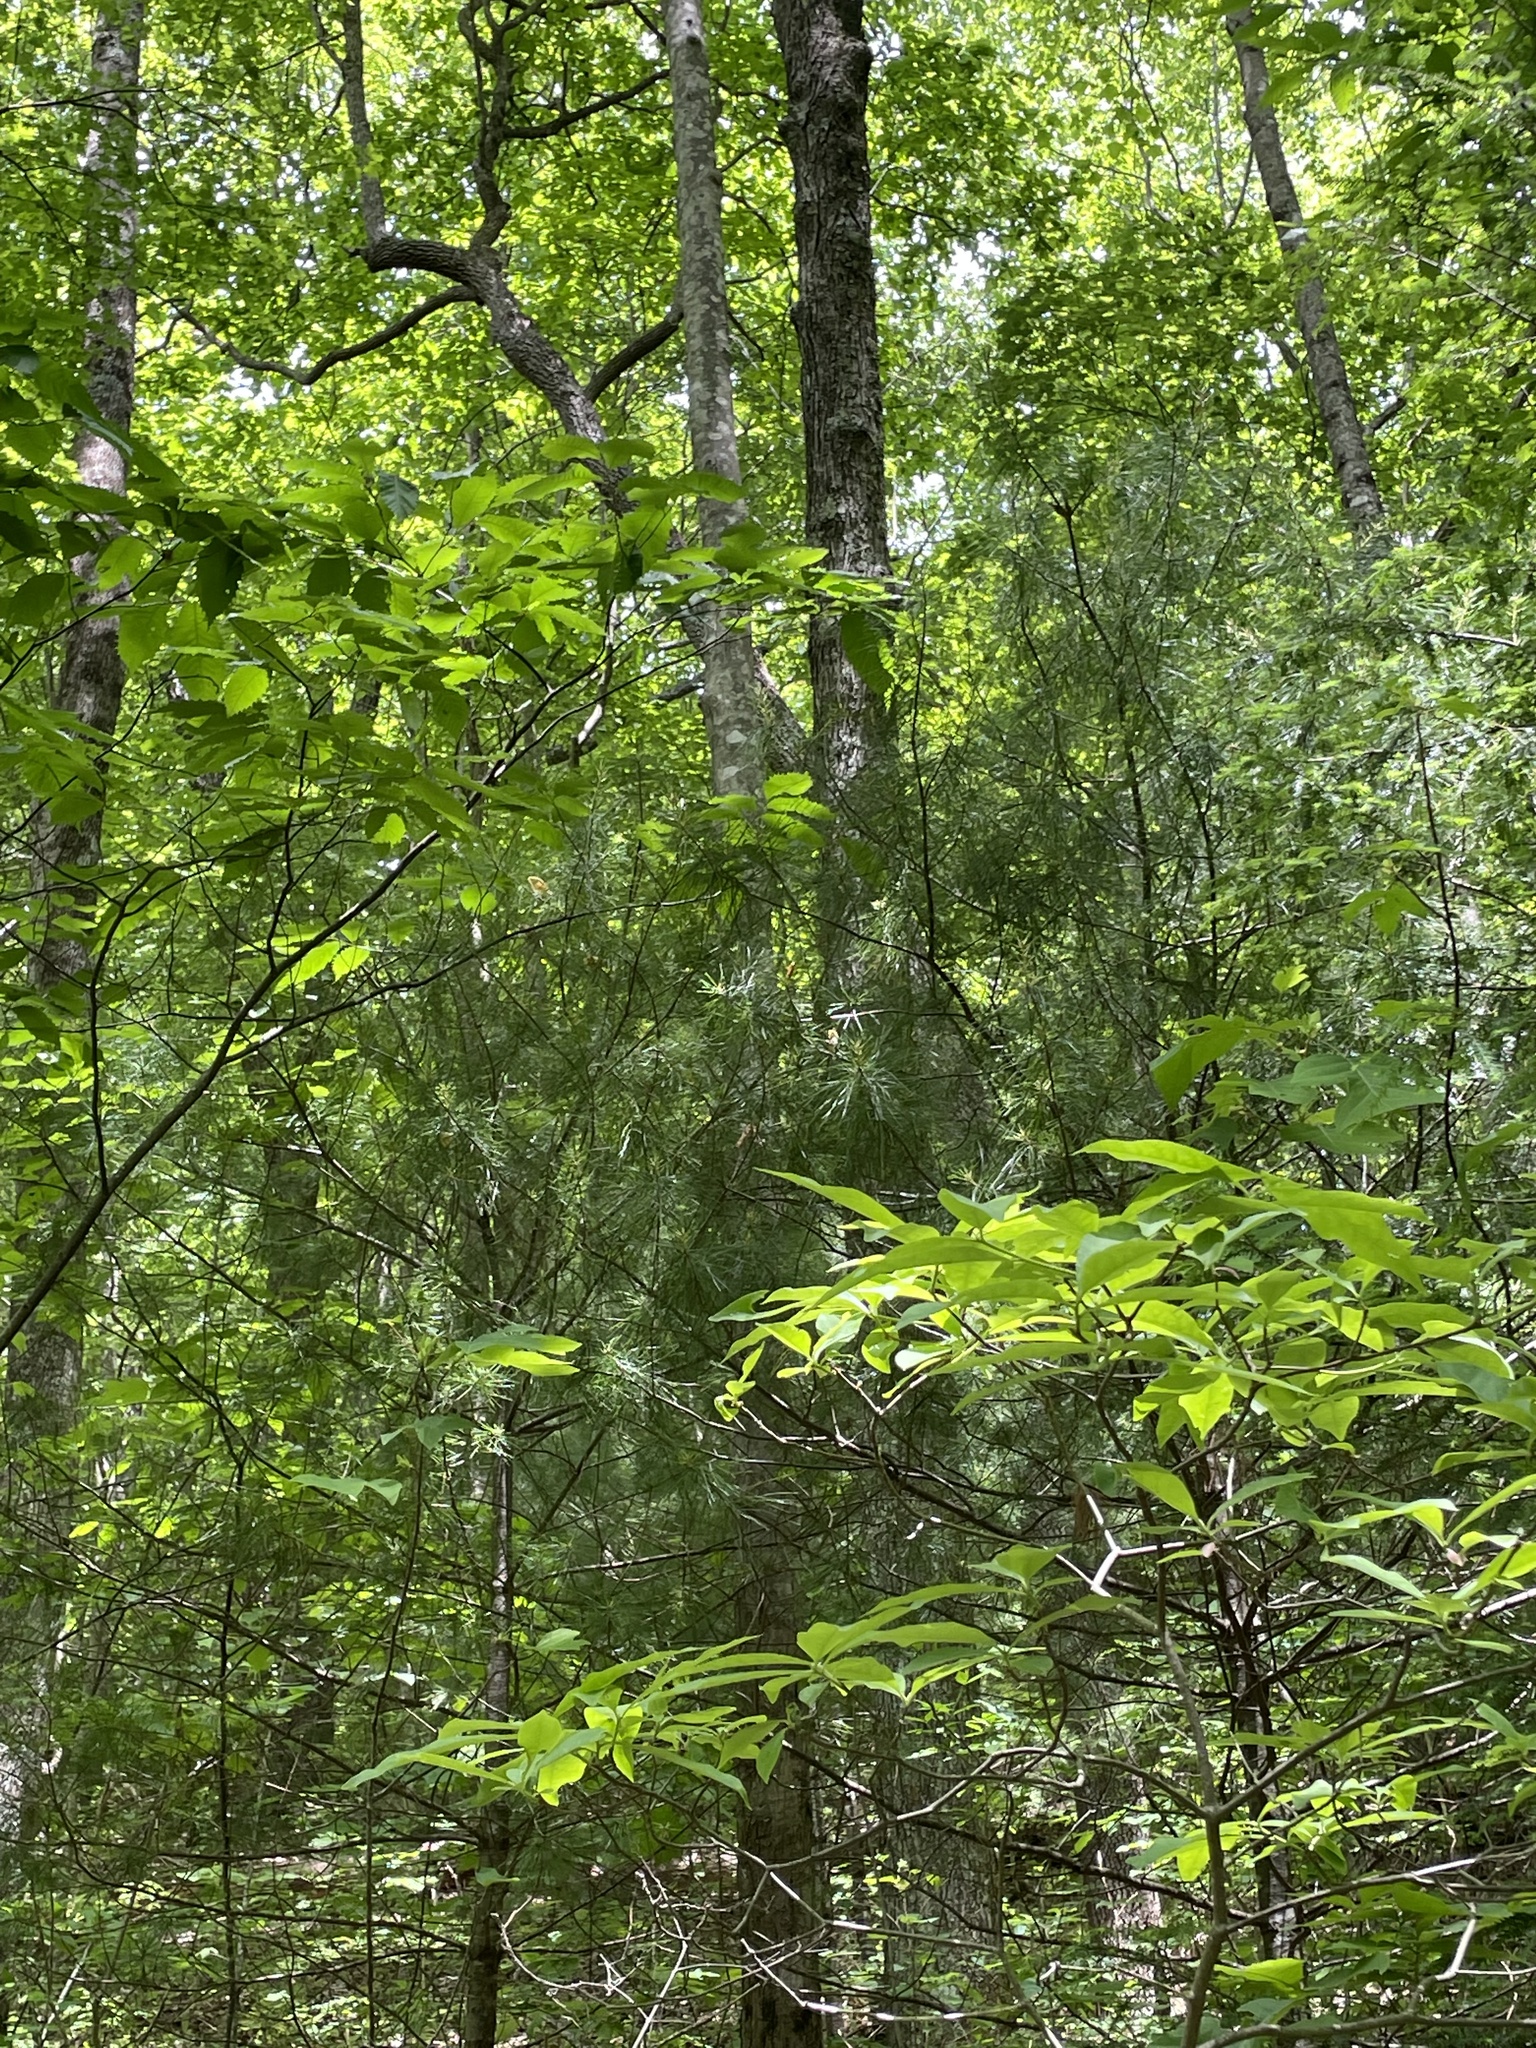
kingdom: Plantae
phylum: Tracheophyta
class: Pinopsida
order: Pinales
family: Pinaceae
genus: Pinus
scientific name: Pinus strobus
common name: Weymouth pine
